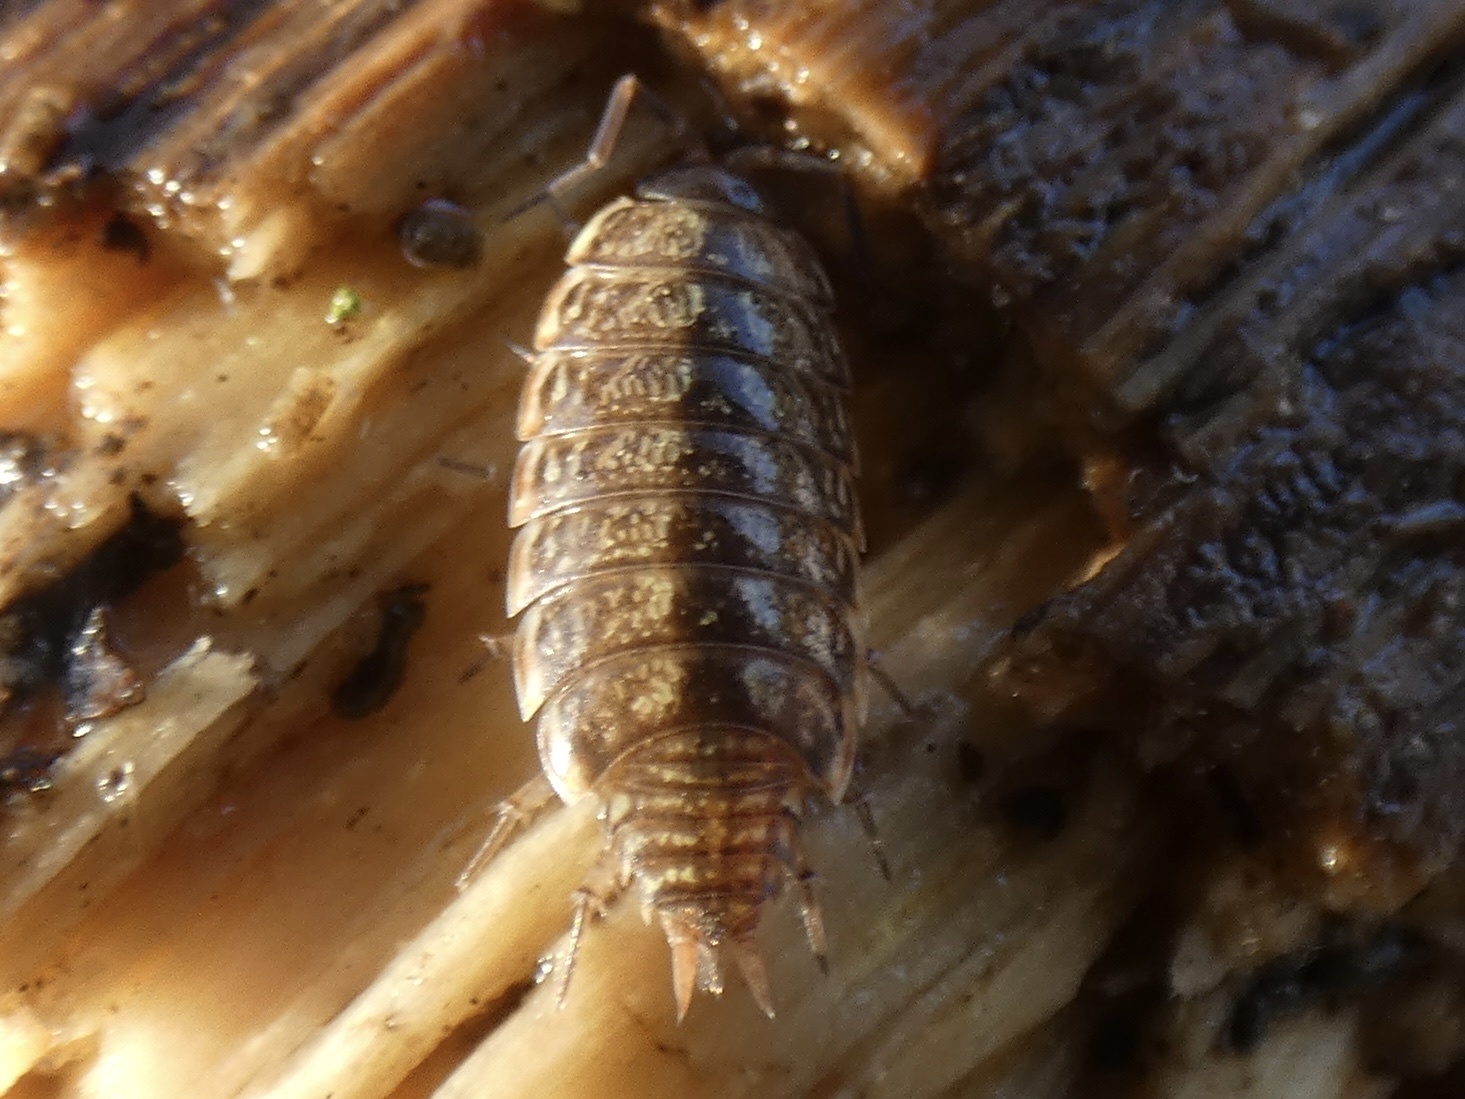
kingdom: Animalia
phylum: Arthropoda
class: Malacostraca
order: Isopoda
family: Philosciidae
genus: Philoscia
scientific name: Philoscia muscorum
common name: Common striped woodlouse
